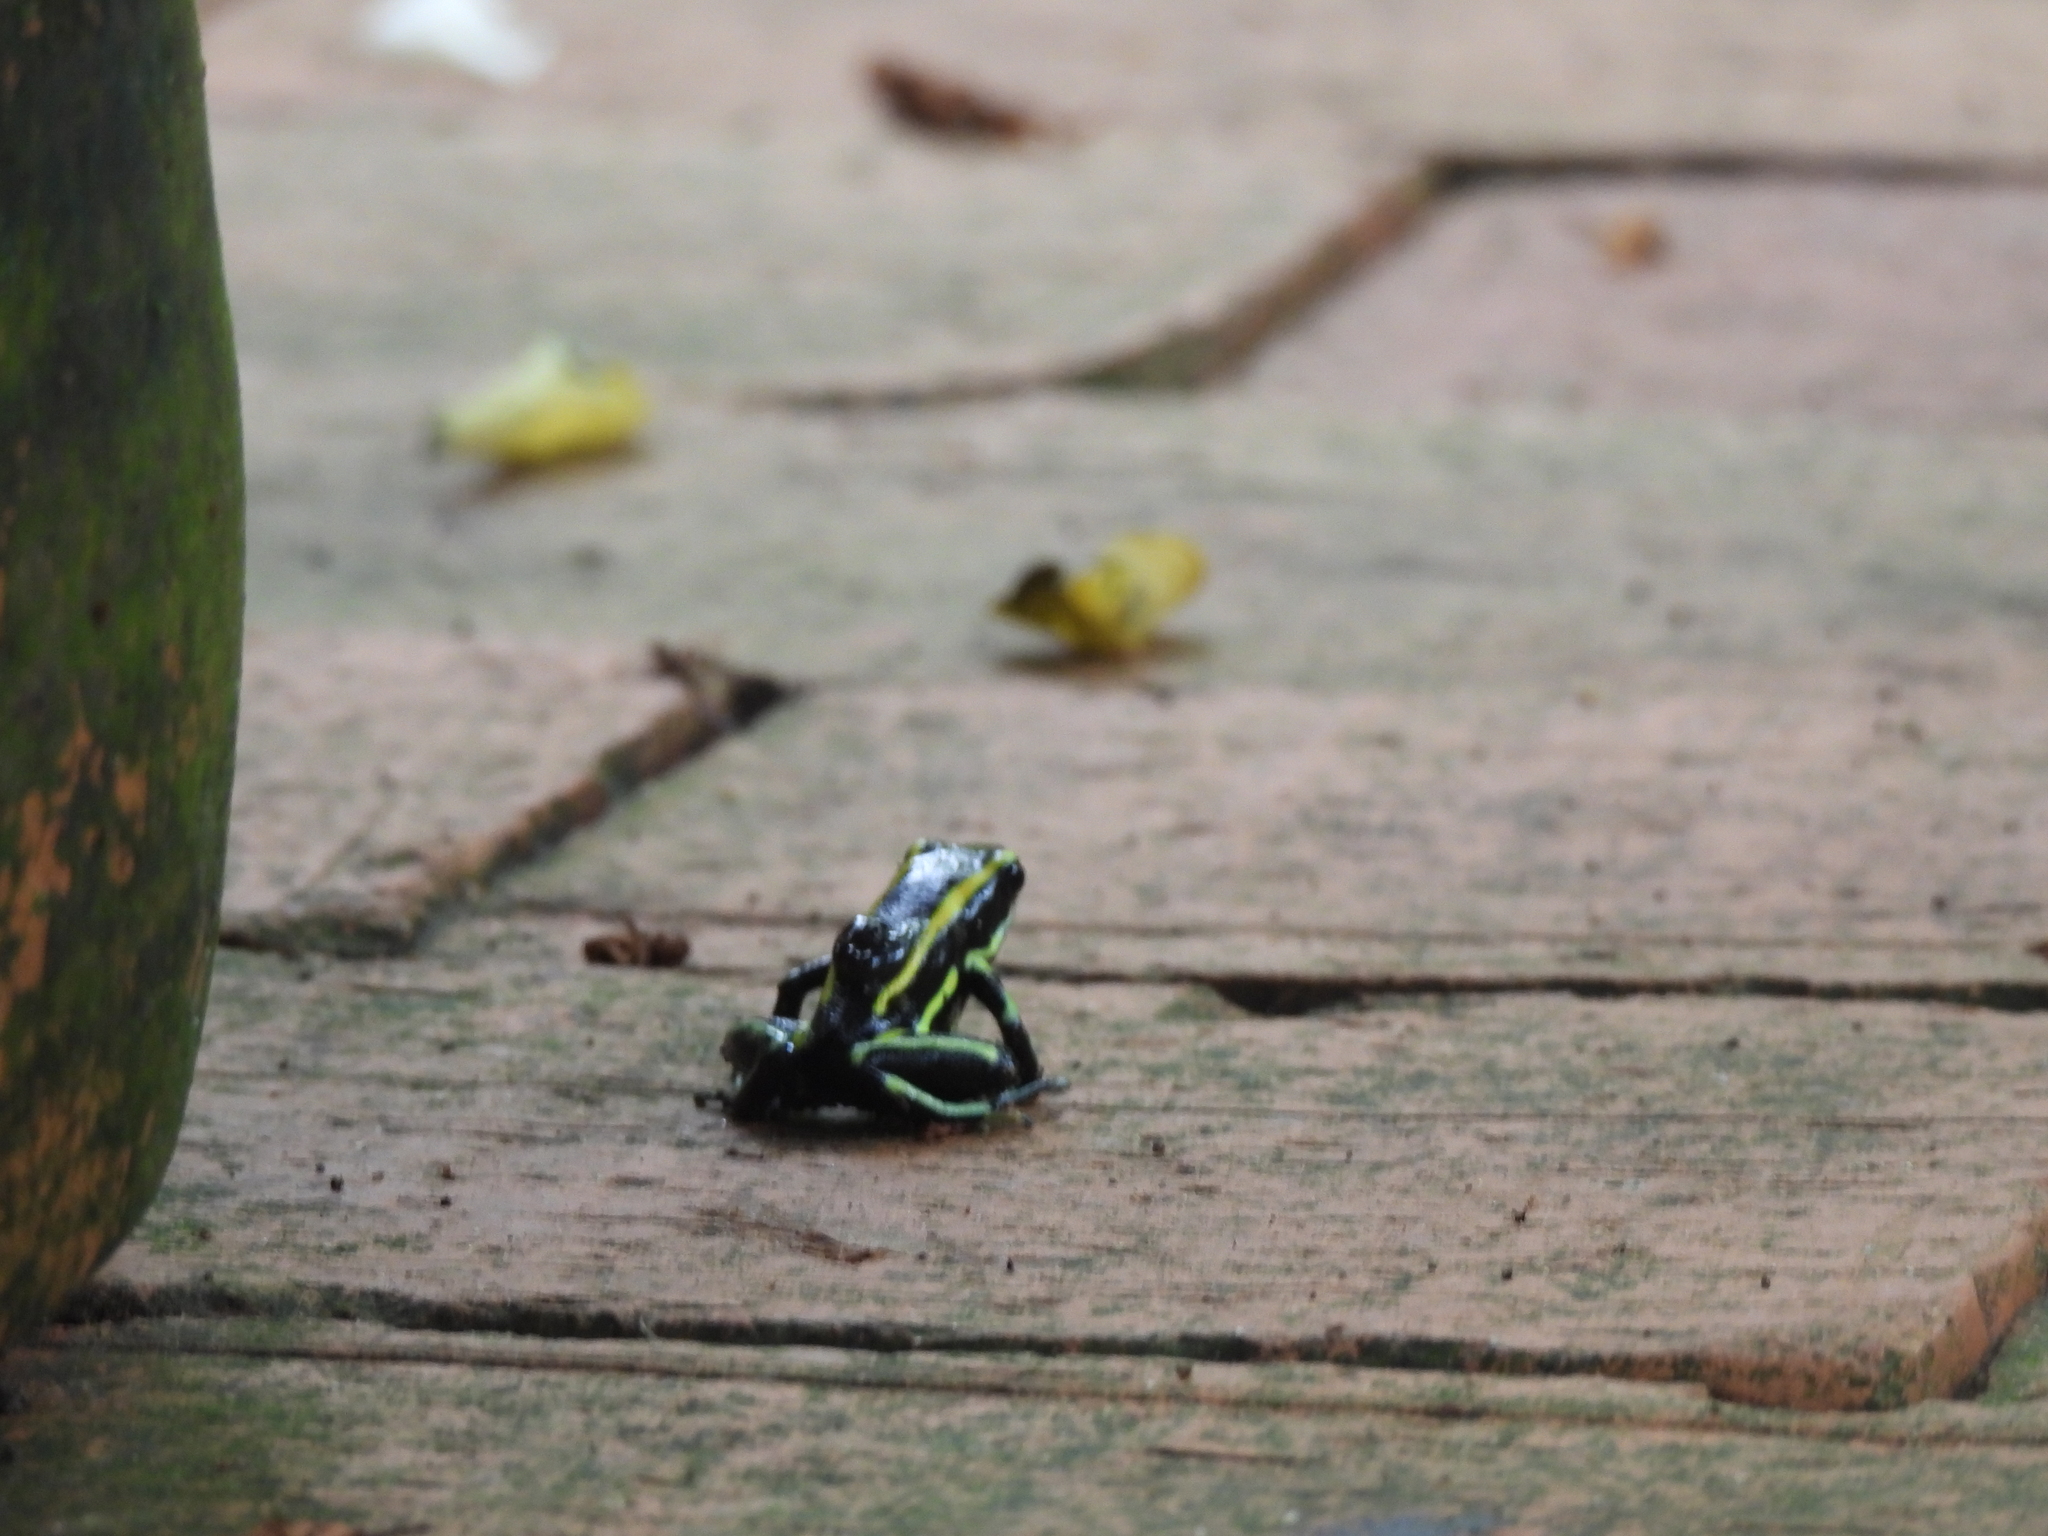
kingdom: Animalia
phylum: Chordata
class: Amphibia
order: Anura
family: Dendrobatidae
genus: Dendrobates
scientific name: Dendrobates truncatus
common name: Yellow-striped poison frog
